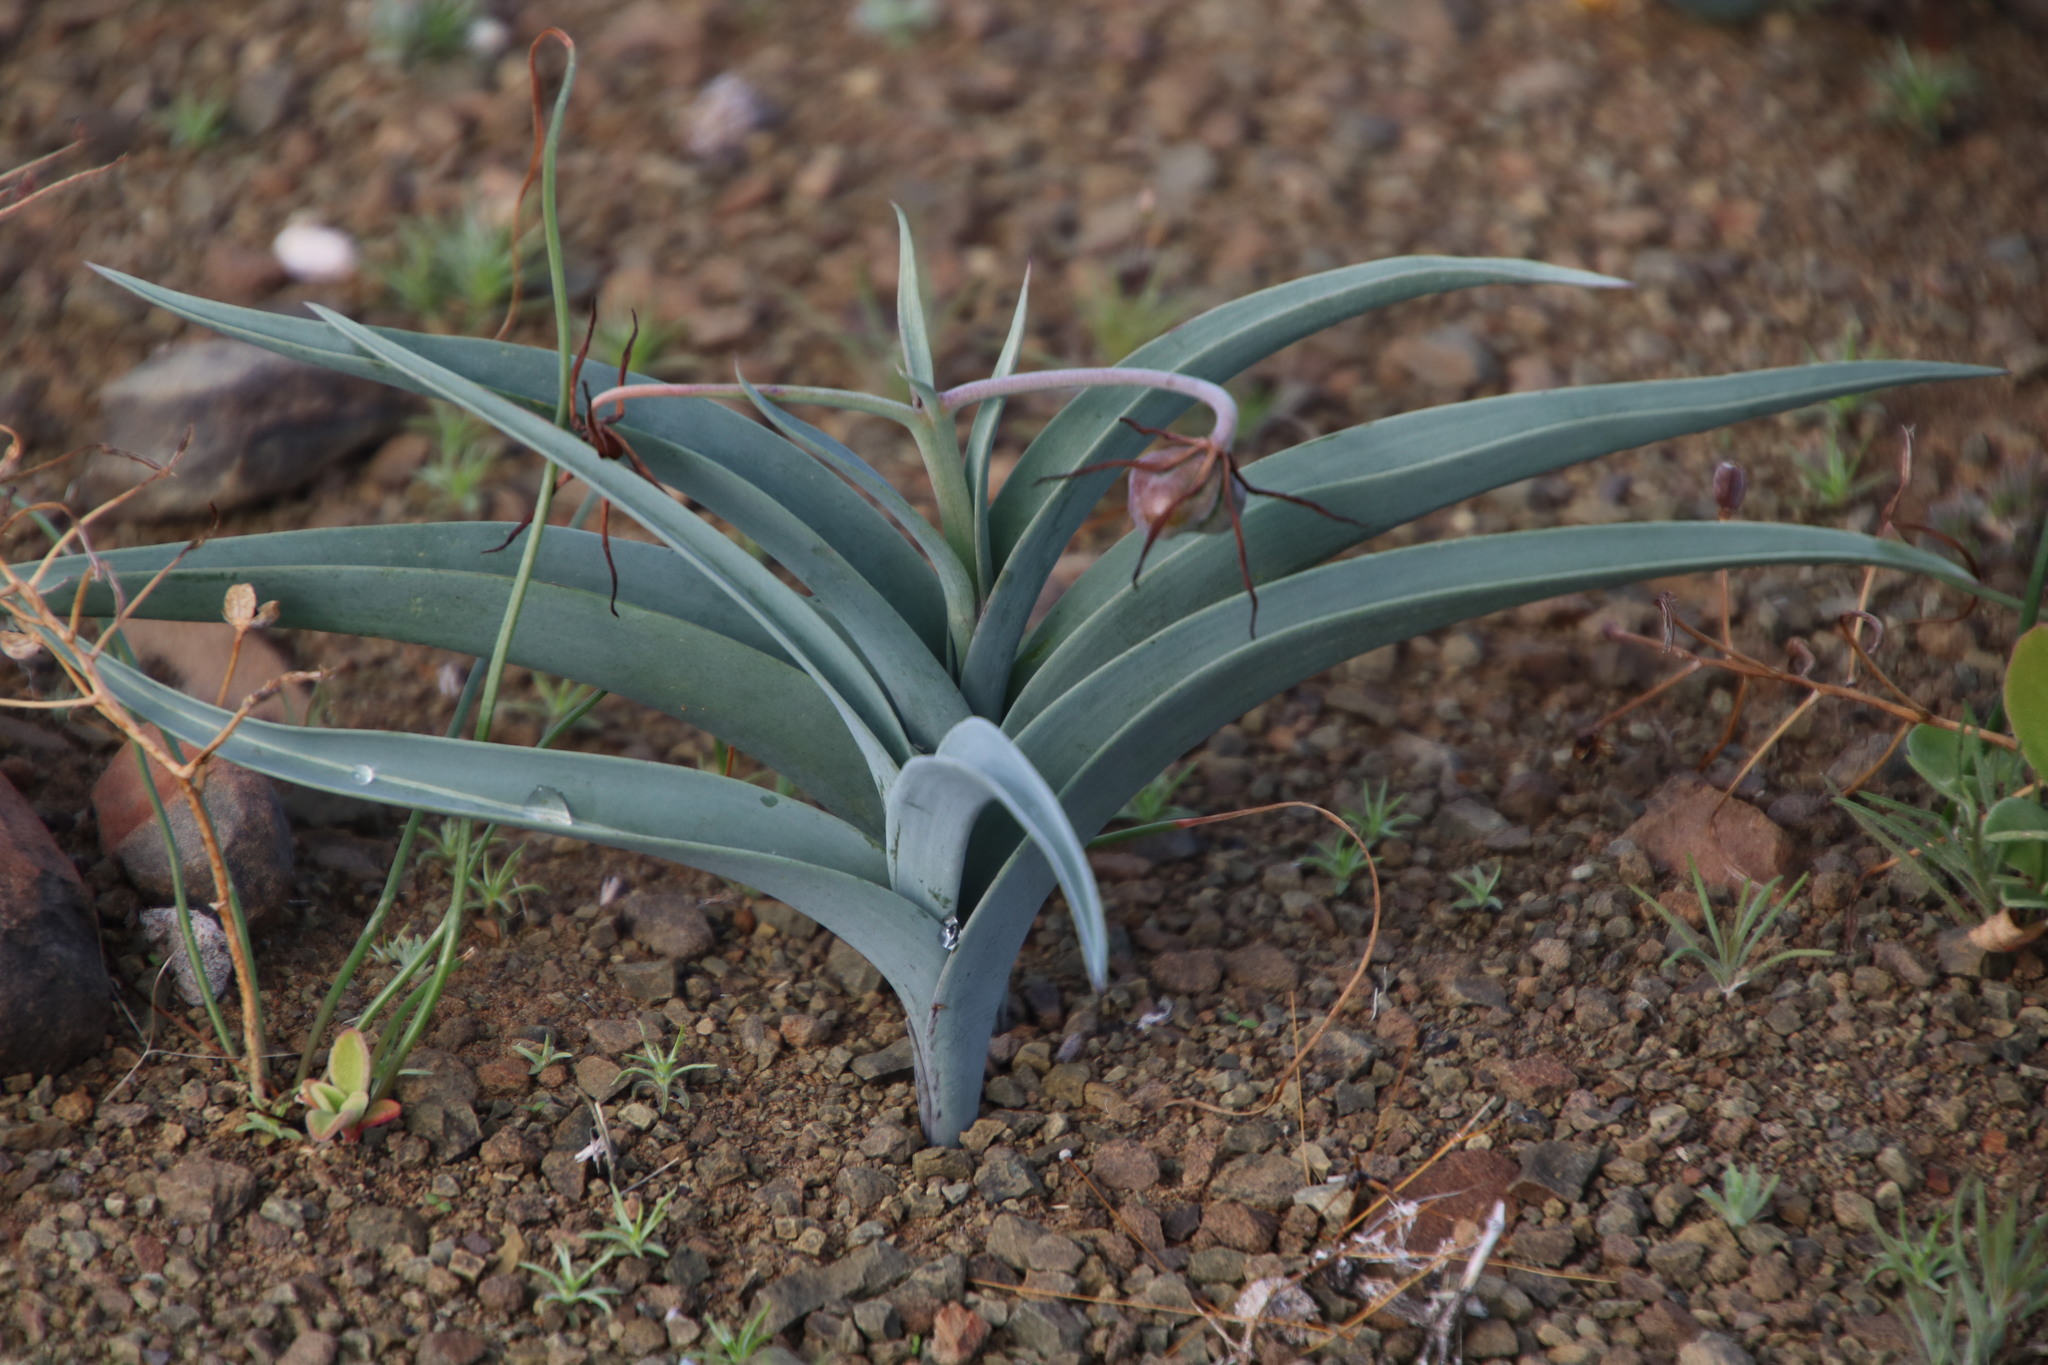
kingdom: Plantae
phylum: Tracheophyta
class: Liliopsida
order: Liliales
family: Colchicaceae
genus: Ornithoglossum
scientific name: Ornithoglossum undulatum
